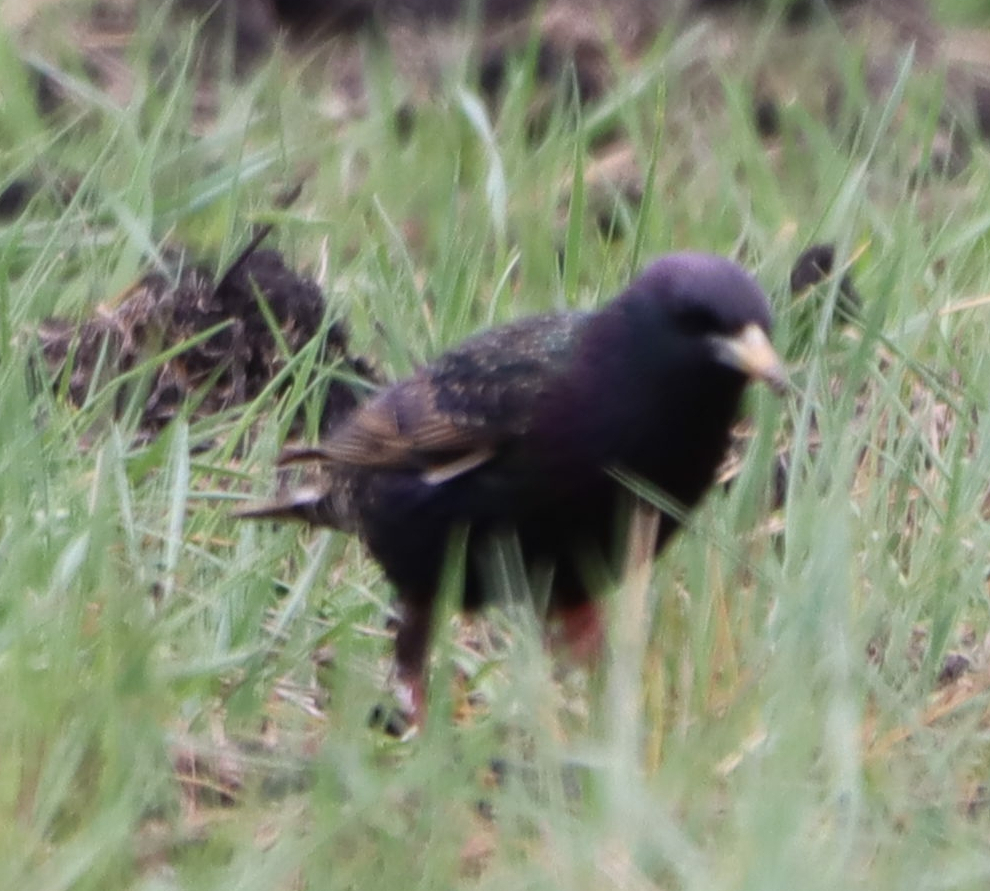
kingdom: Animalia
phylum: Chordata
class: Aves
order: Passeriformes
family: Sturnidae
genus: Sturnus
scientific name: Sturnus vulgaris
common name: Common starling
